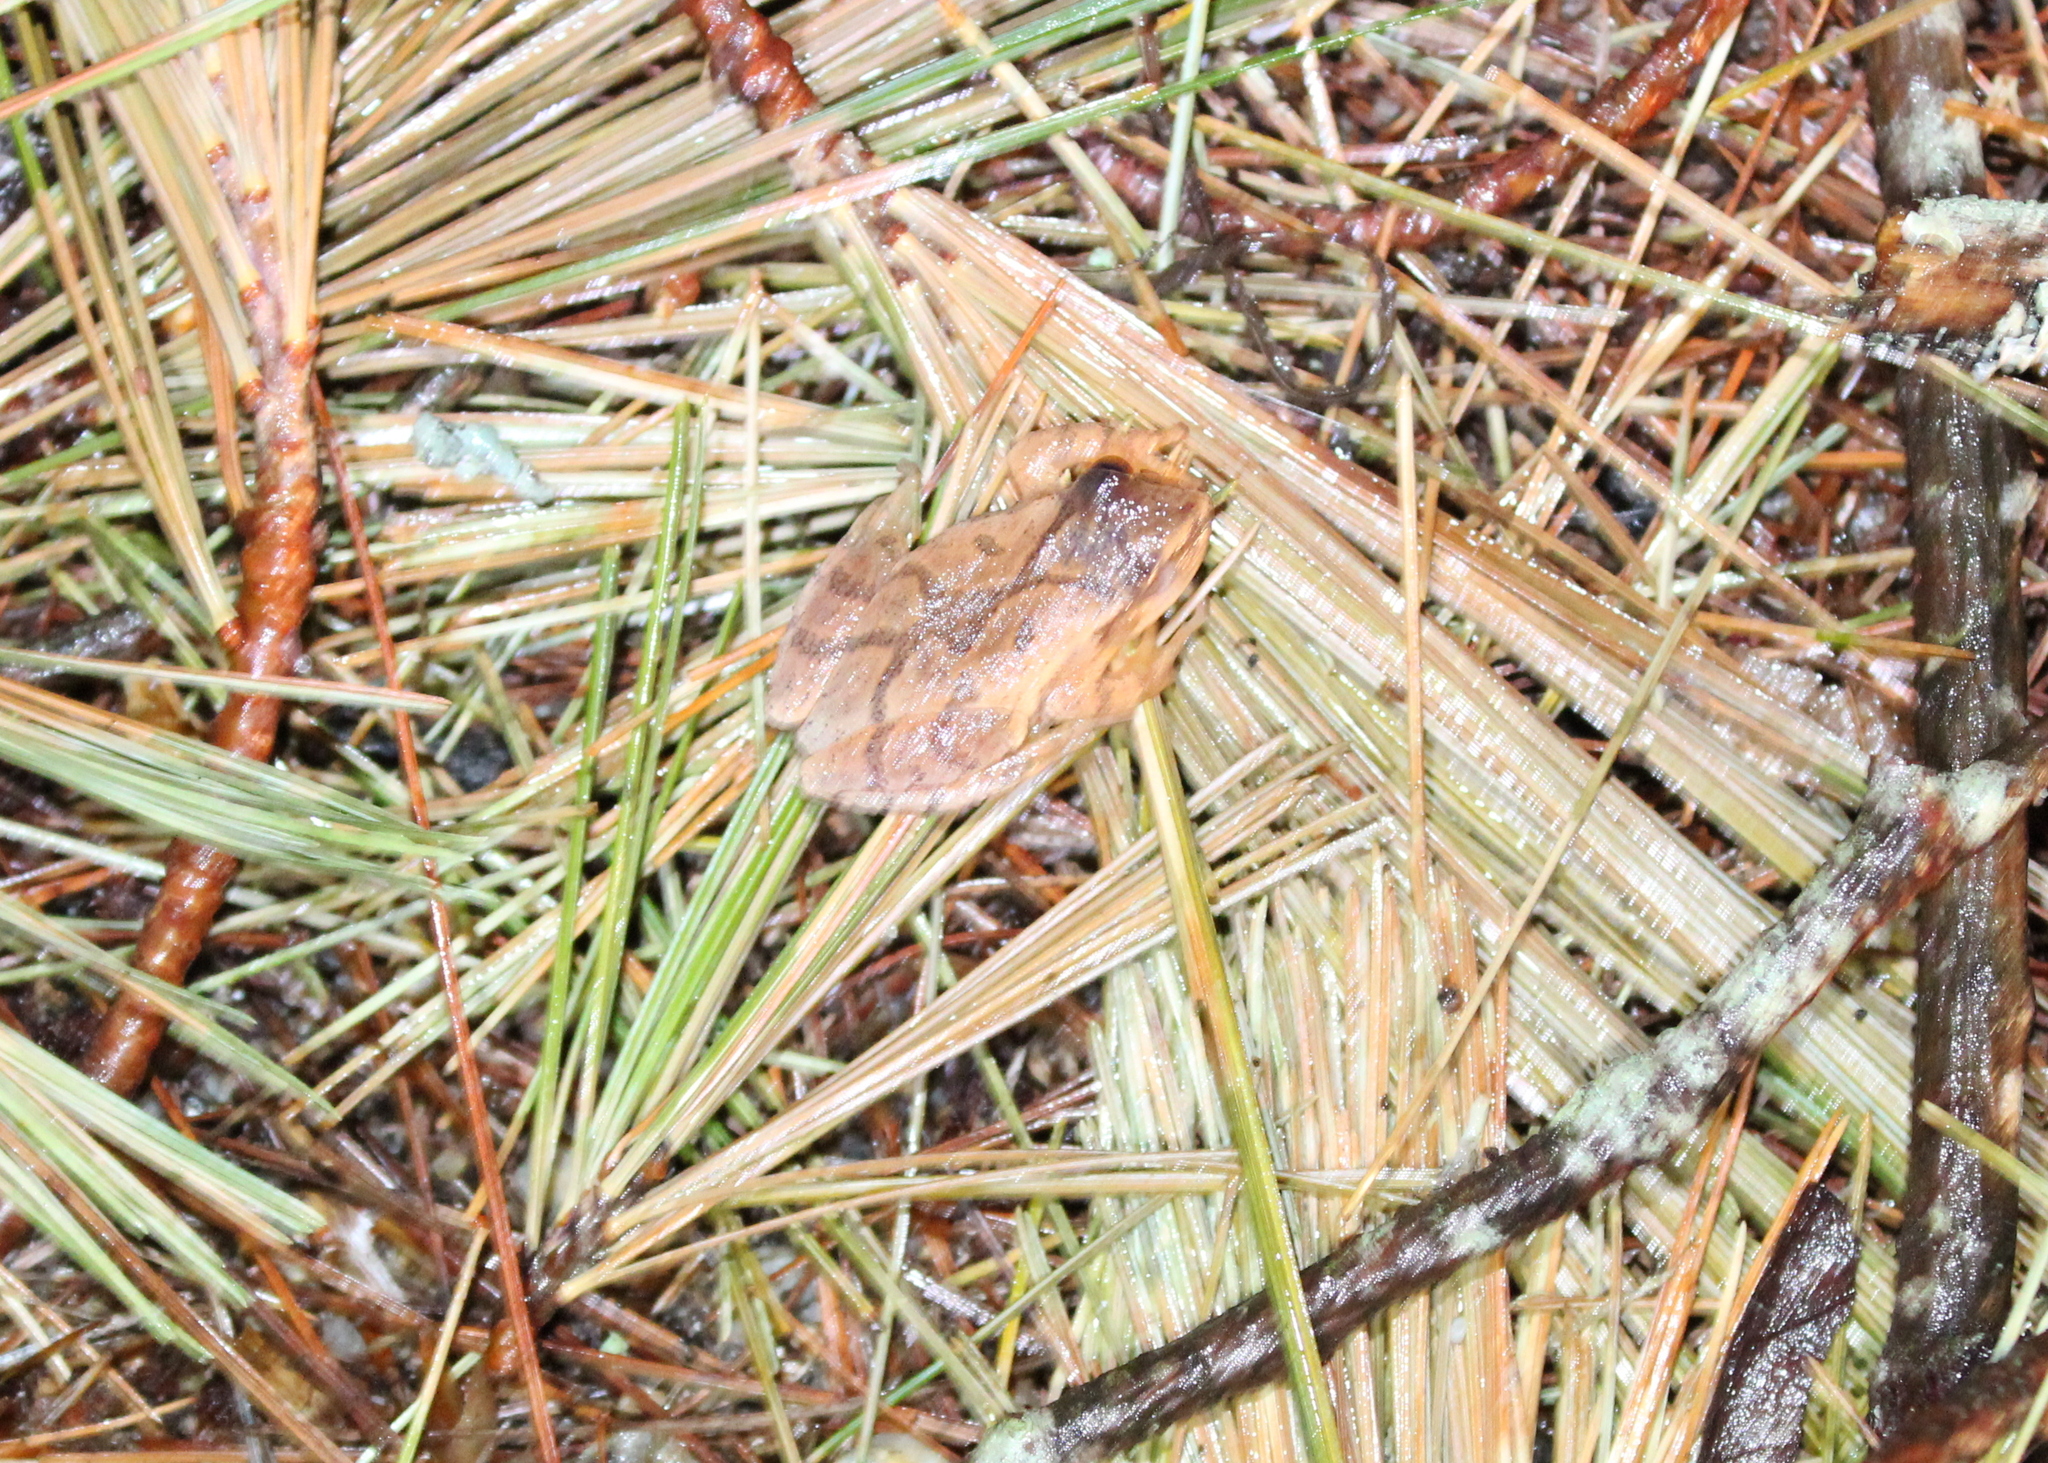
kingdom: Animalia
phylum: Chordata
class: Amphibia
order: Anura
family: Hylidae
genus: Pseudacris
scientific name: Pseudacris crucifer
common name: Spring peeper
